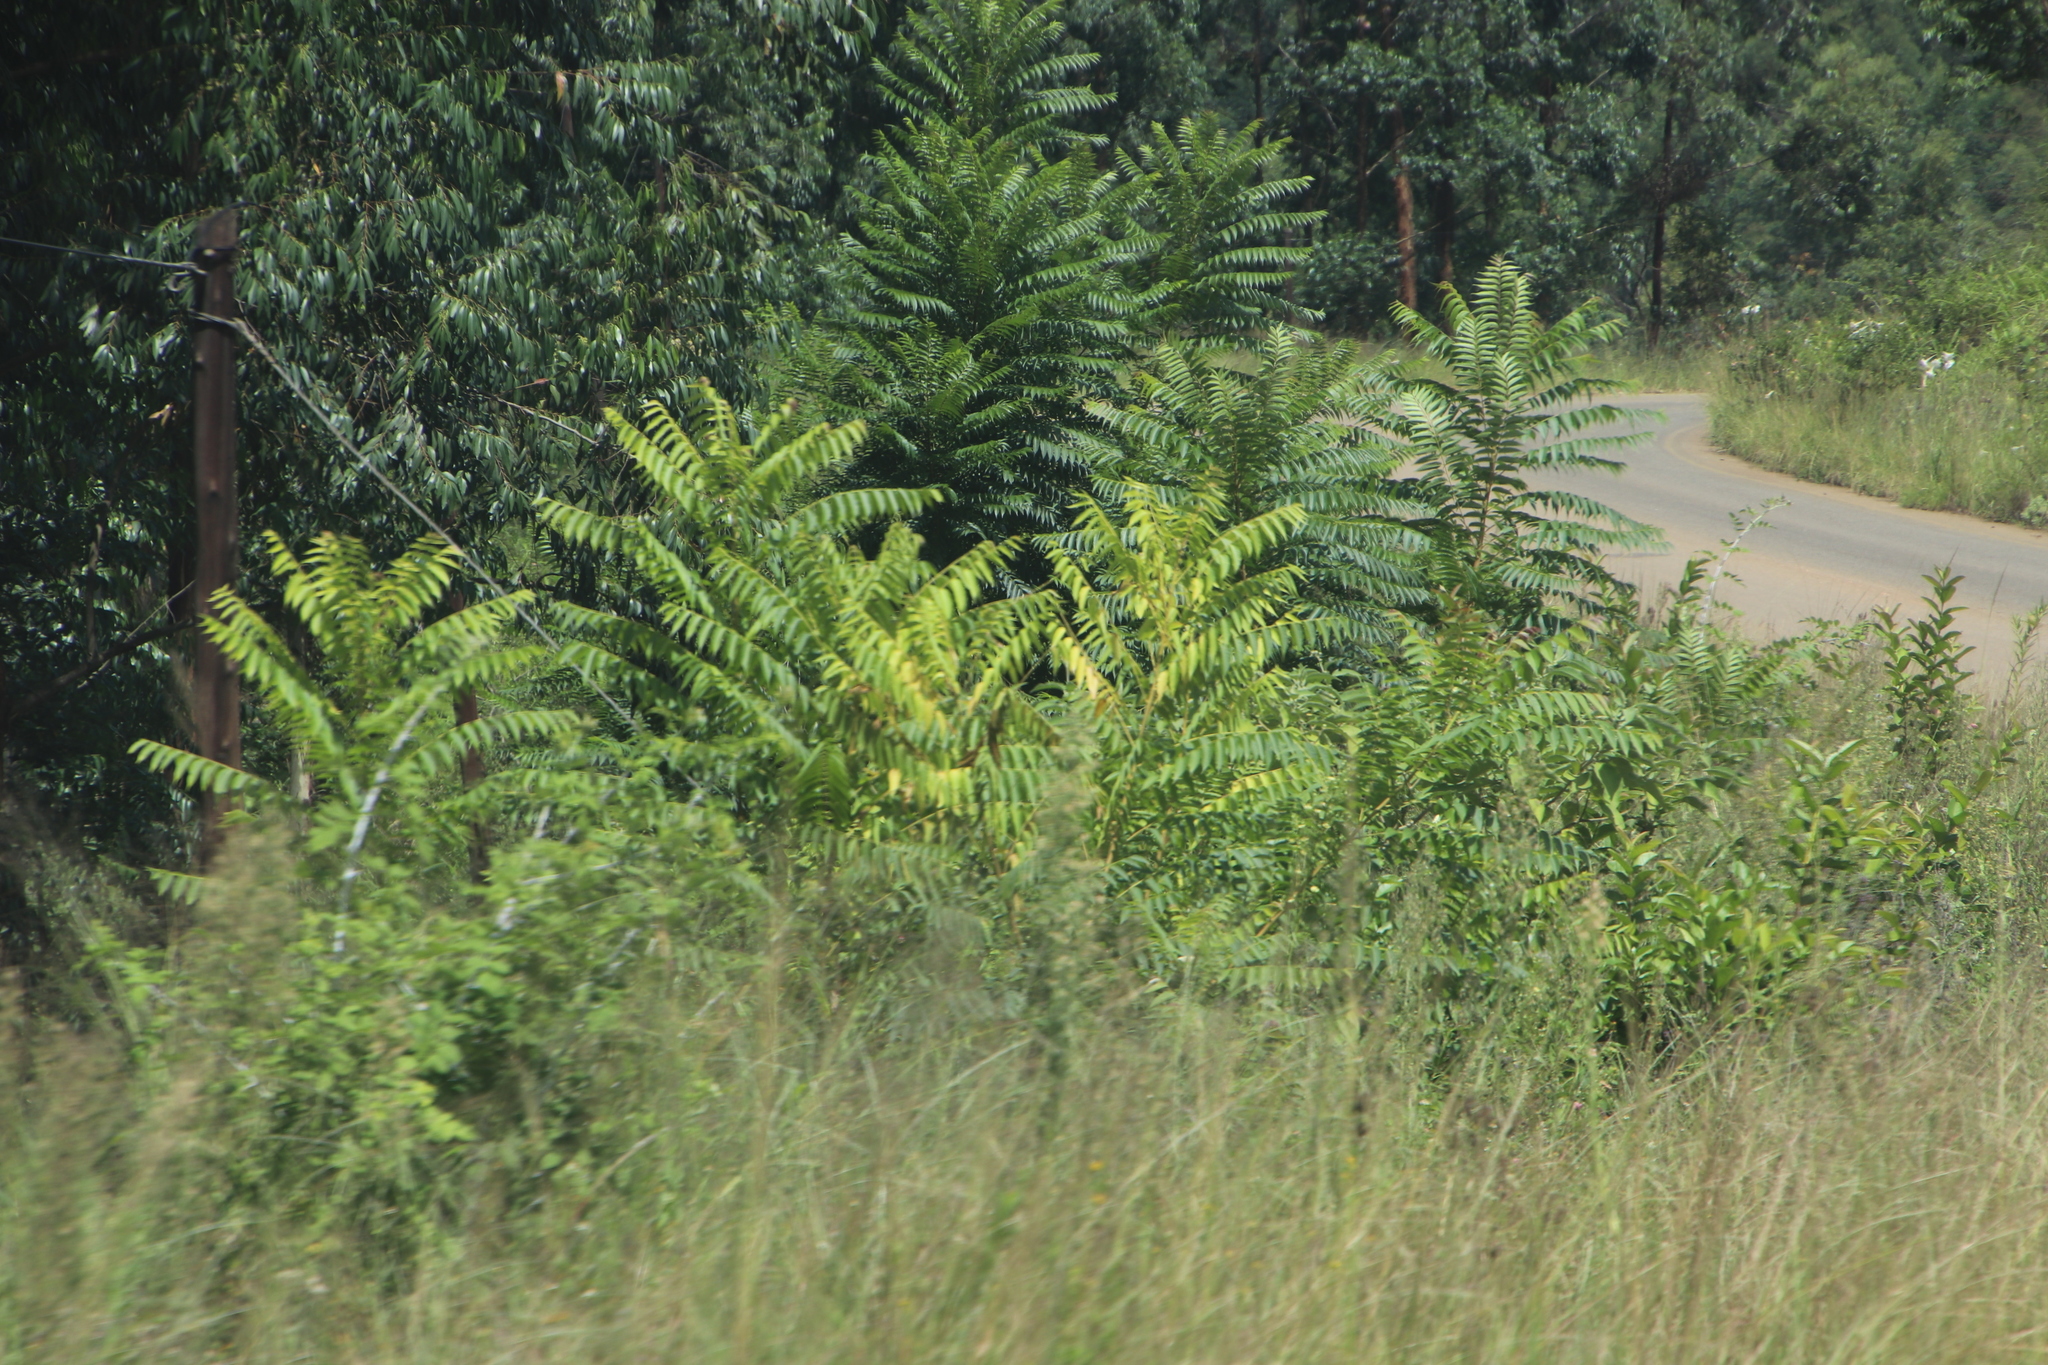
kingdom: Plantae
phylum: Tracheophyta
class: Magnoliopsida
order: Sapindales
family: Simaroubaceae
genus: Ailanthus
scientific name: Ailanthus altissima
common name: Tree-of-heaven
